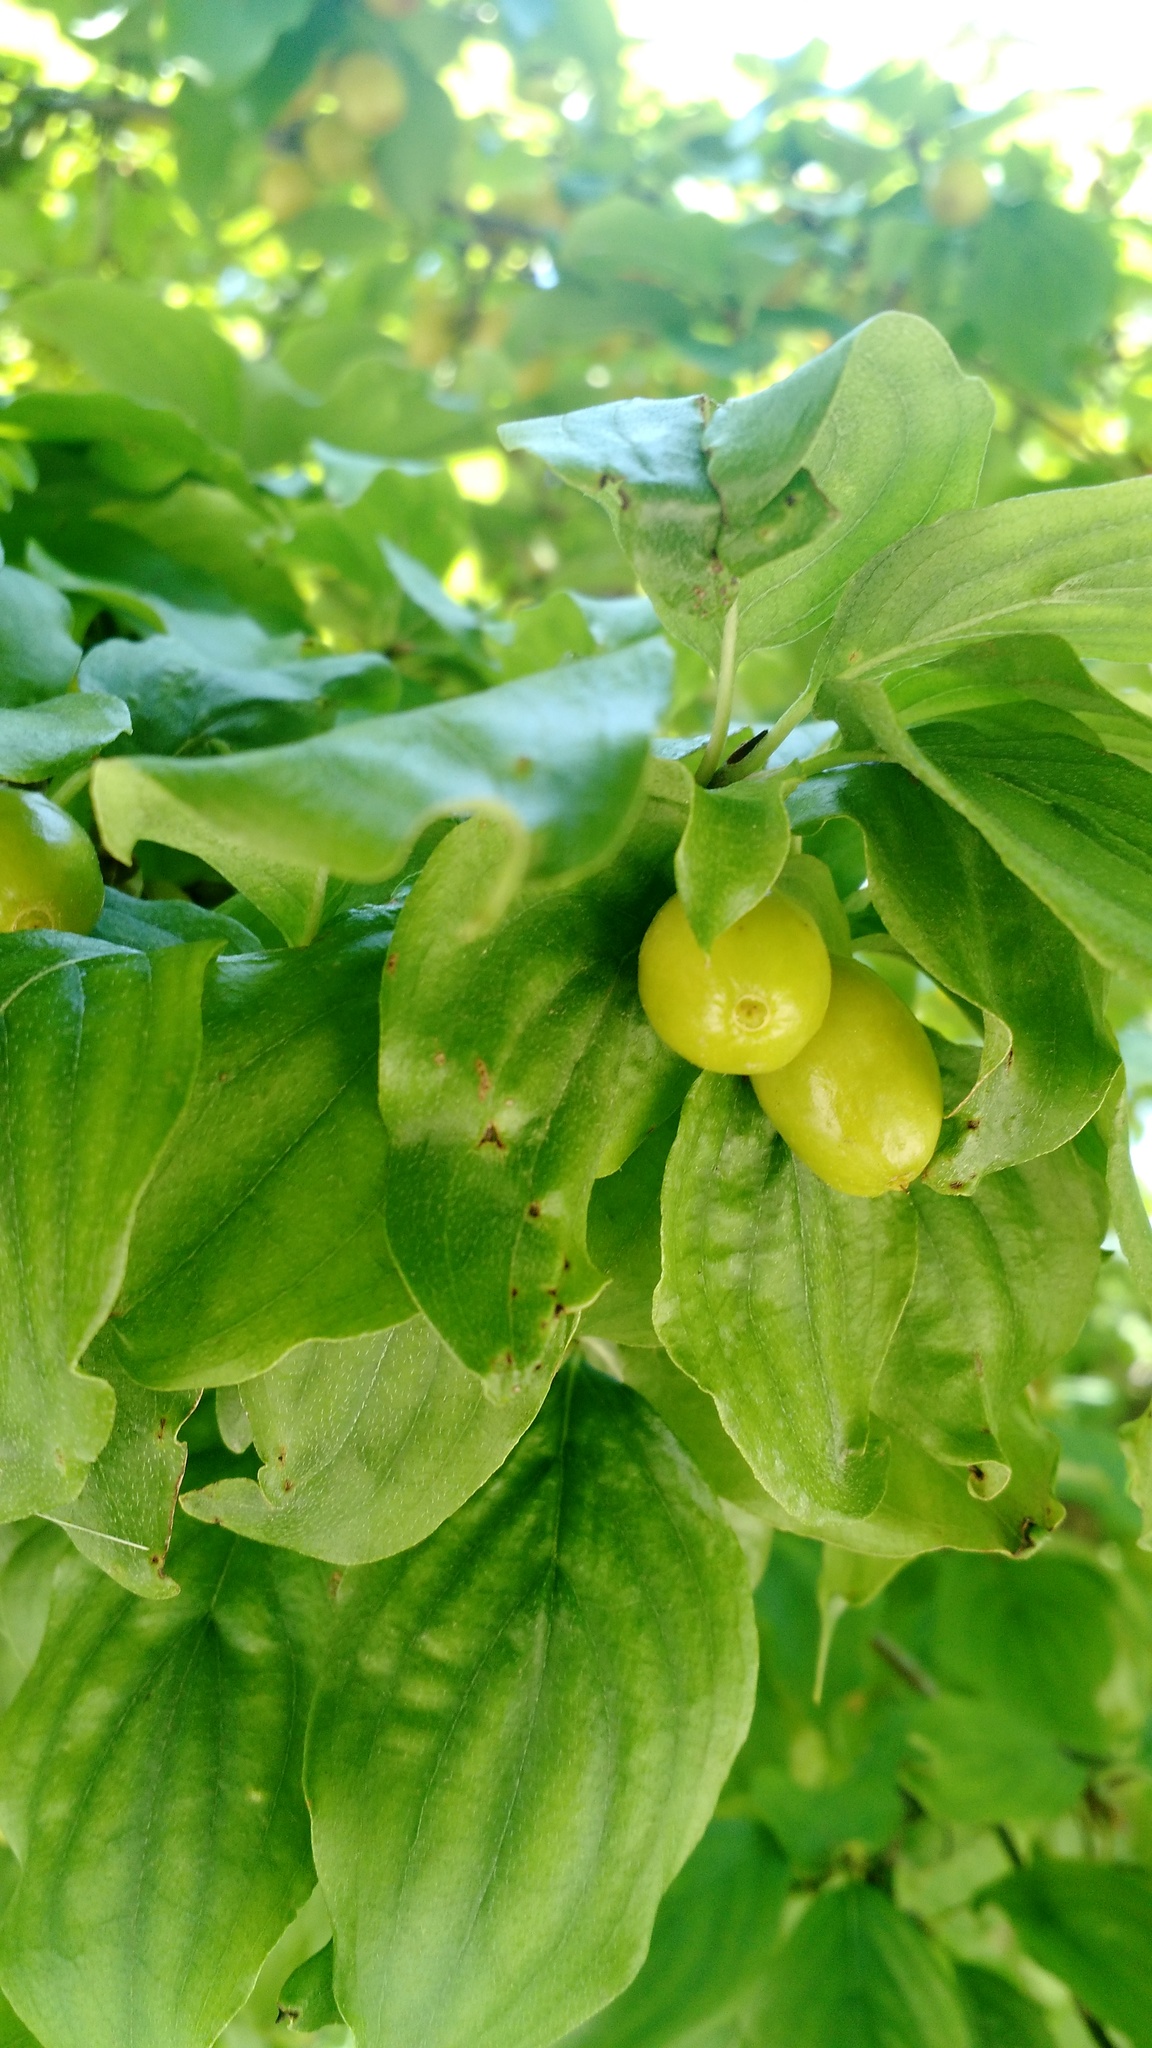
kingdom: Plantae
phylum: Tracheophyta
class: Magnoliopsida
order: Cornales
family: Cornaceae
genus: Cornus
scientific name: Cornus mas
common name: Cornelian-cherry
